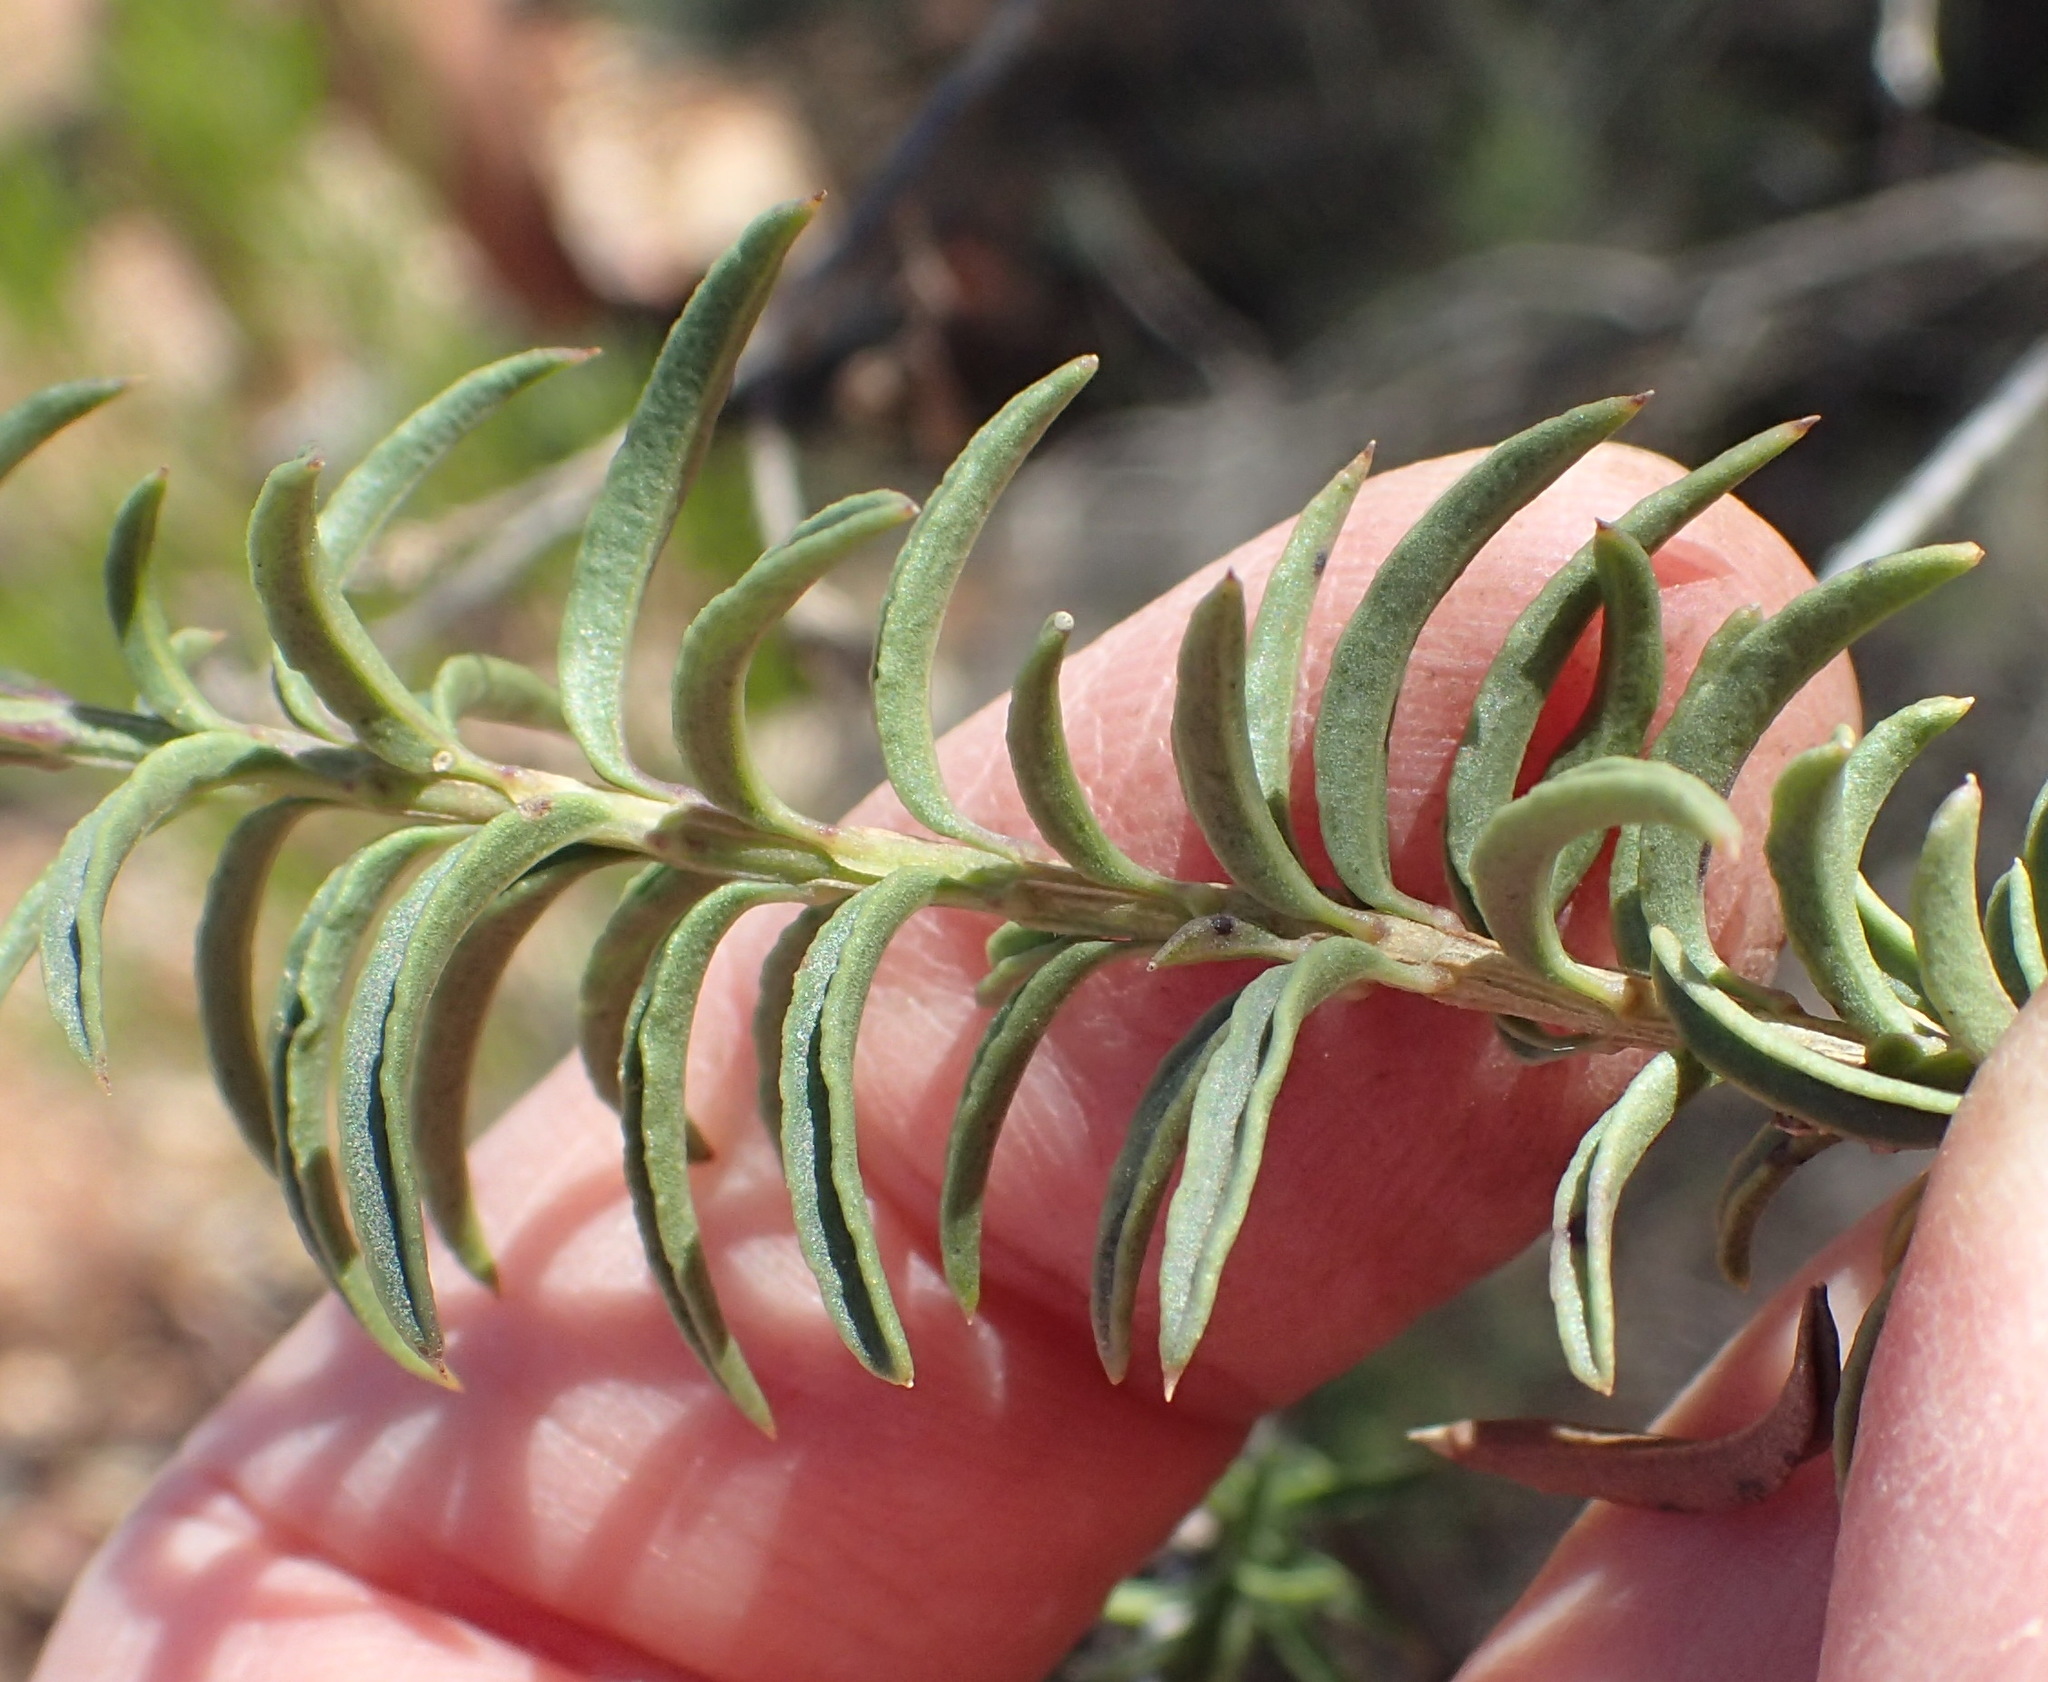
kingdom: Plantae
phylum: Tracheophyta
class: Magnoliopsida
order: Lamiales
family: Scrophulariaceae
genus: Freylinia
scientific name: Freylinia densiflora
